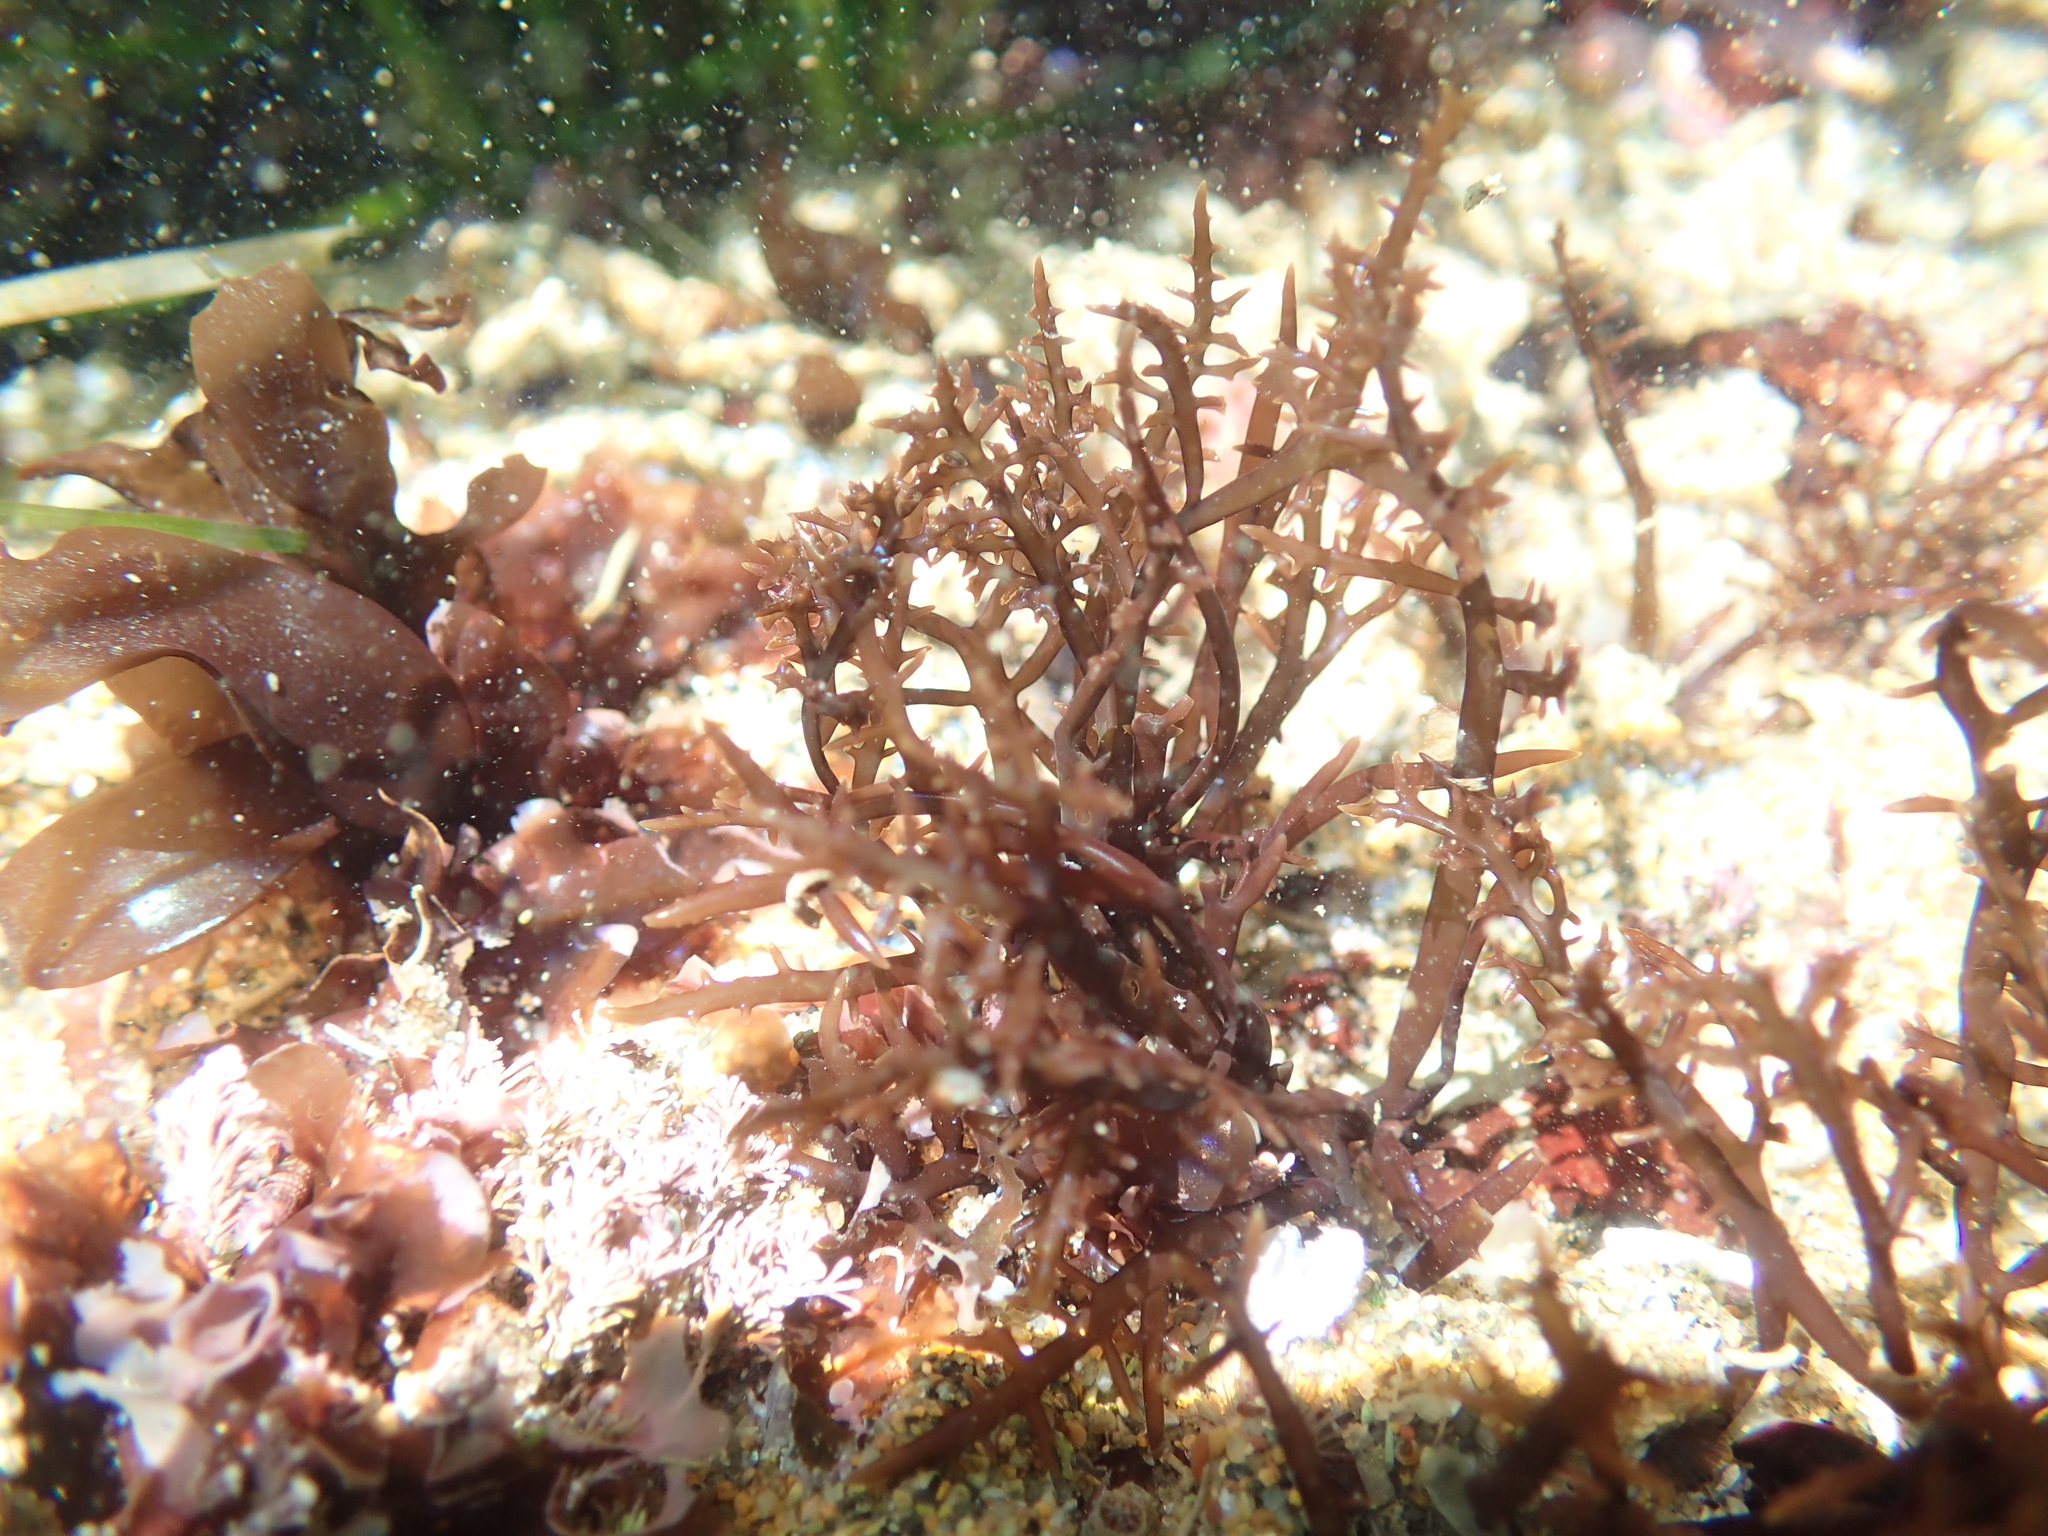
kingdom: Plantae
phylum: Rhodophyta
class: Florideophyceae
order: Gigartinales
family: Gigartinaceae
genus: Chondracanthus
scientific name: Chondracanthus canaliculatus
